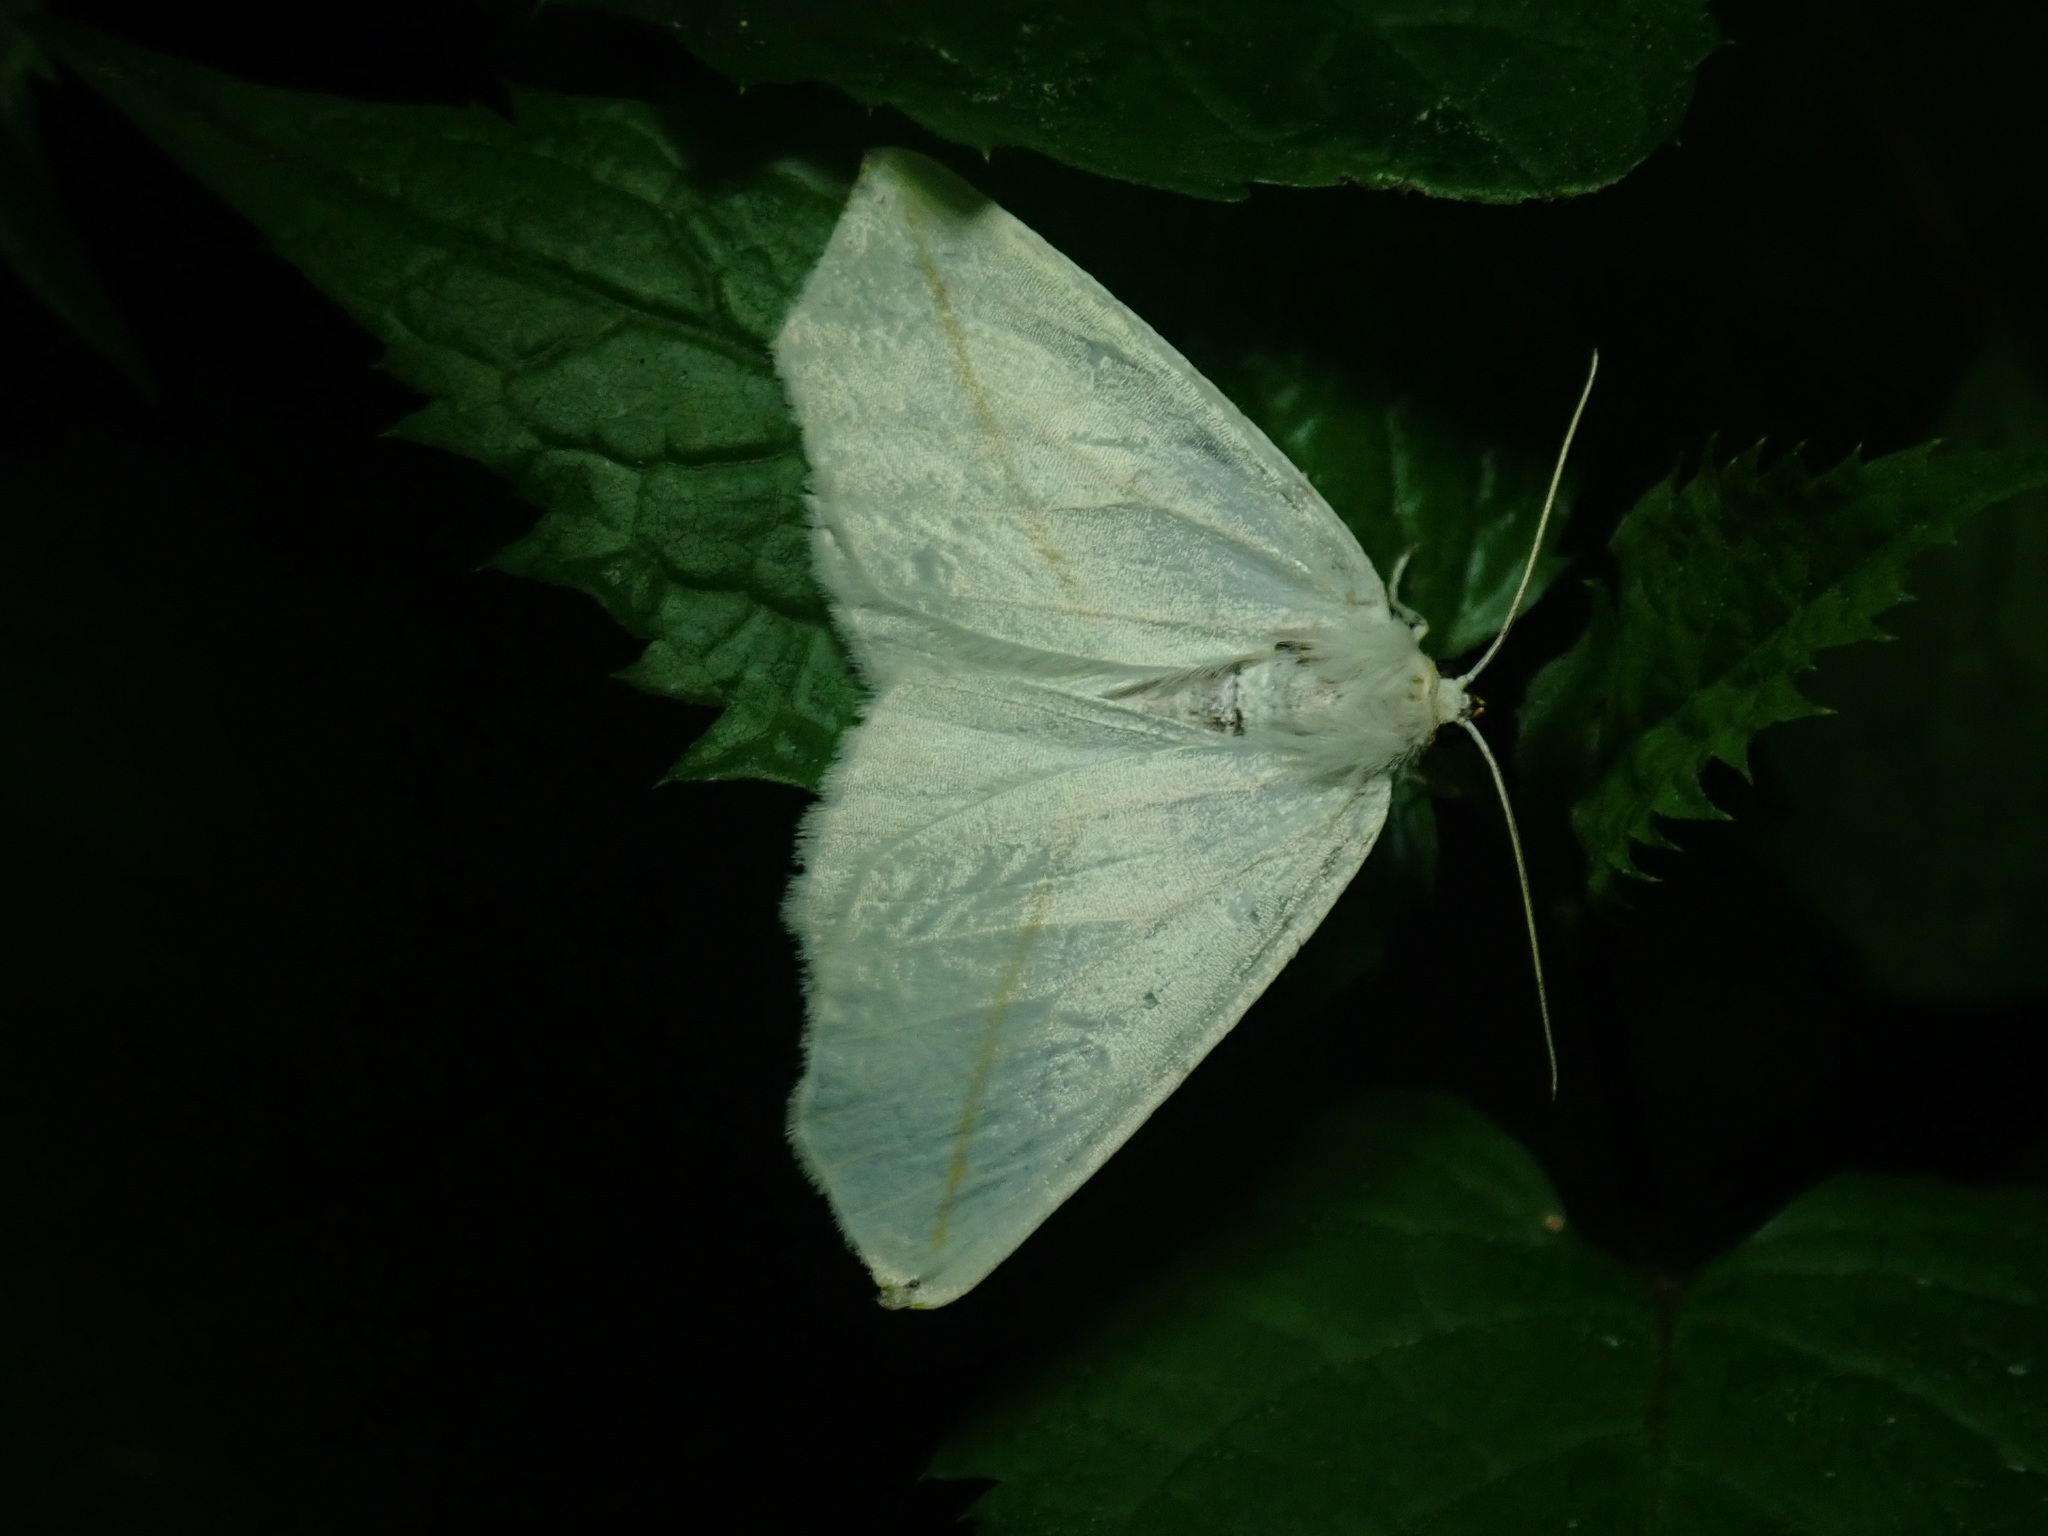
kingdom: Animalia
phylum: Arthropoda
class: Insecta
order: Lepidoptera
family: Geometridae
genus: Tetracis
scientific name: Tetracis cachexiata
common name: White slant-line
